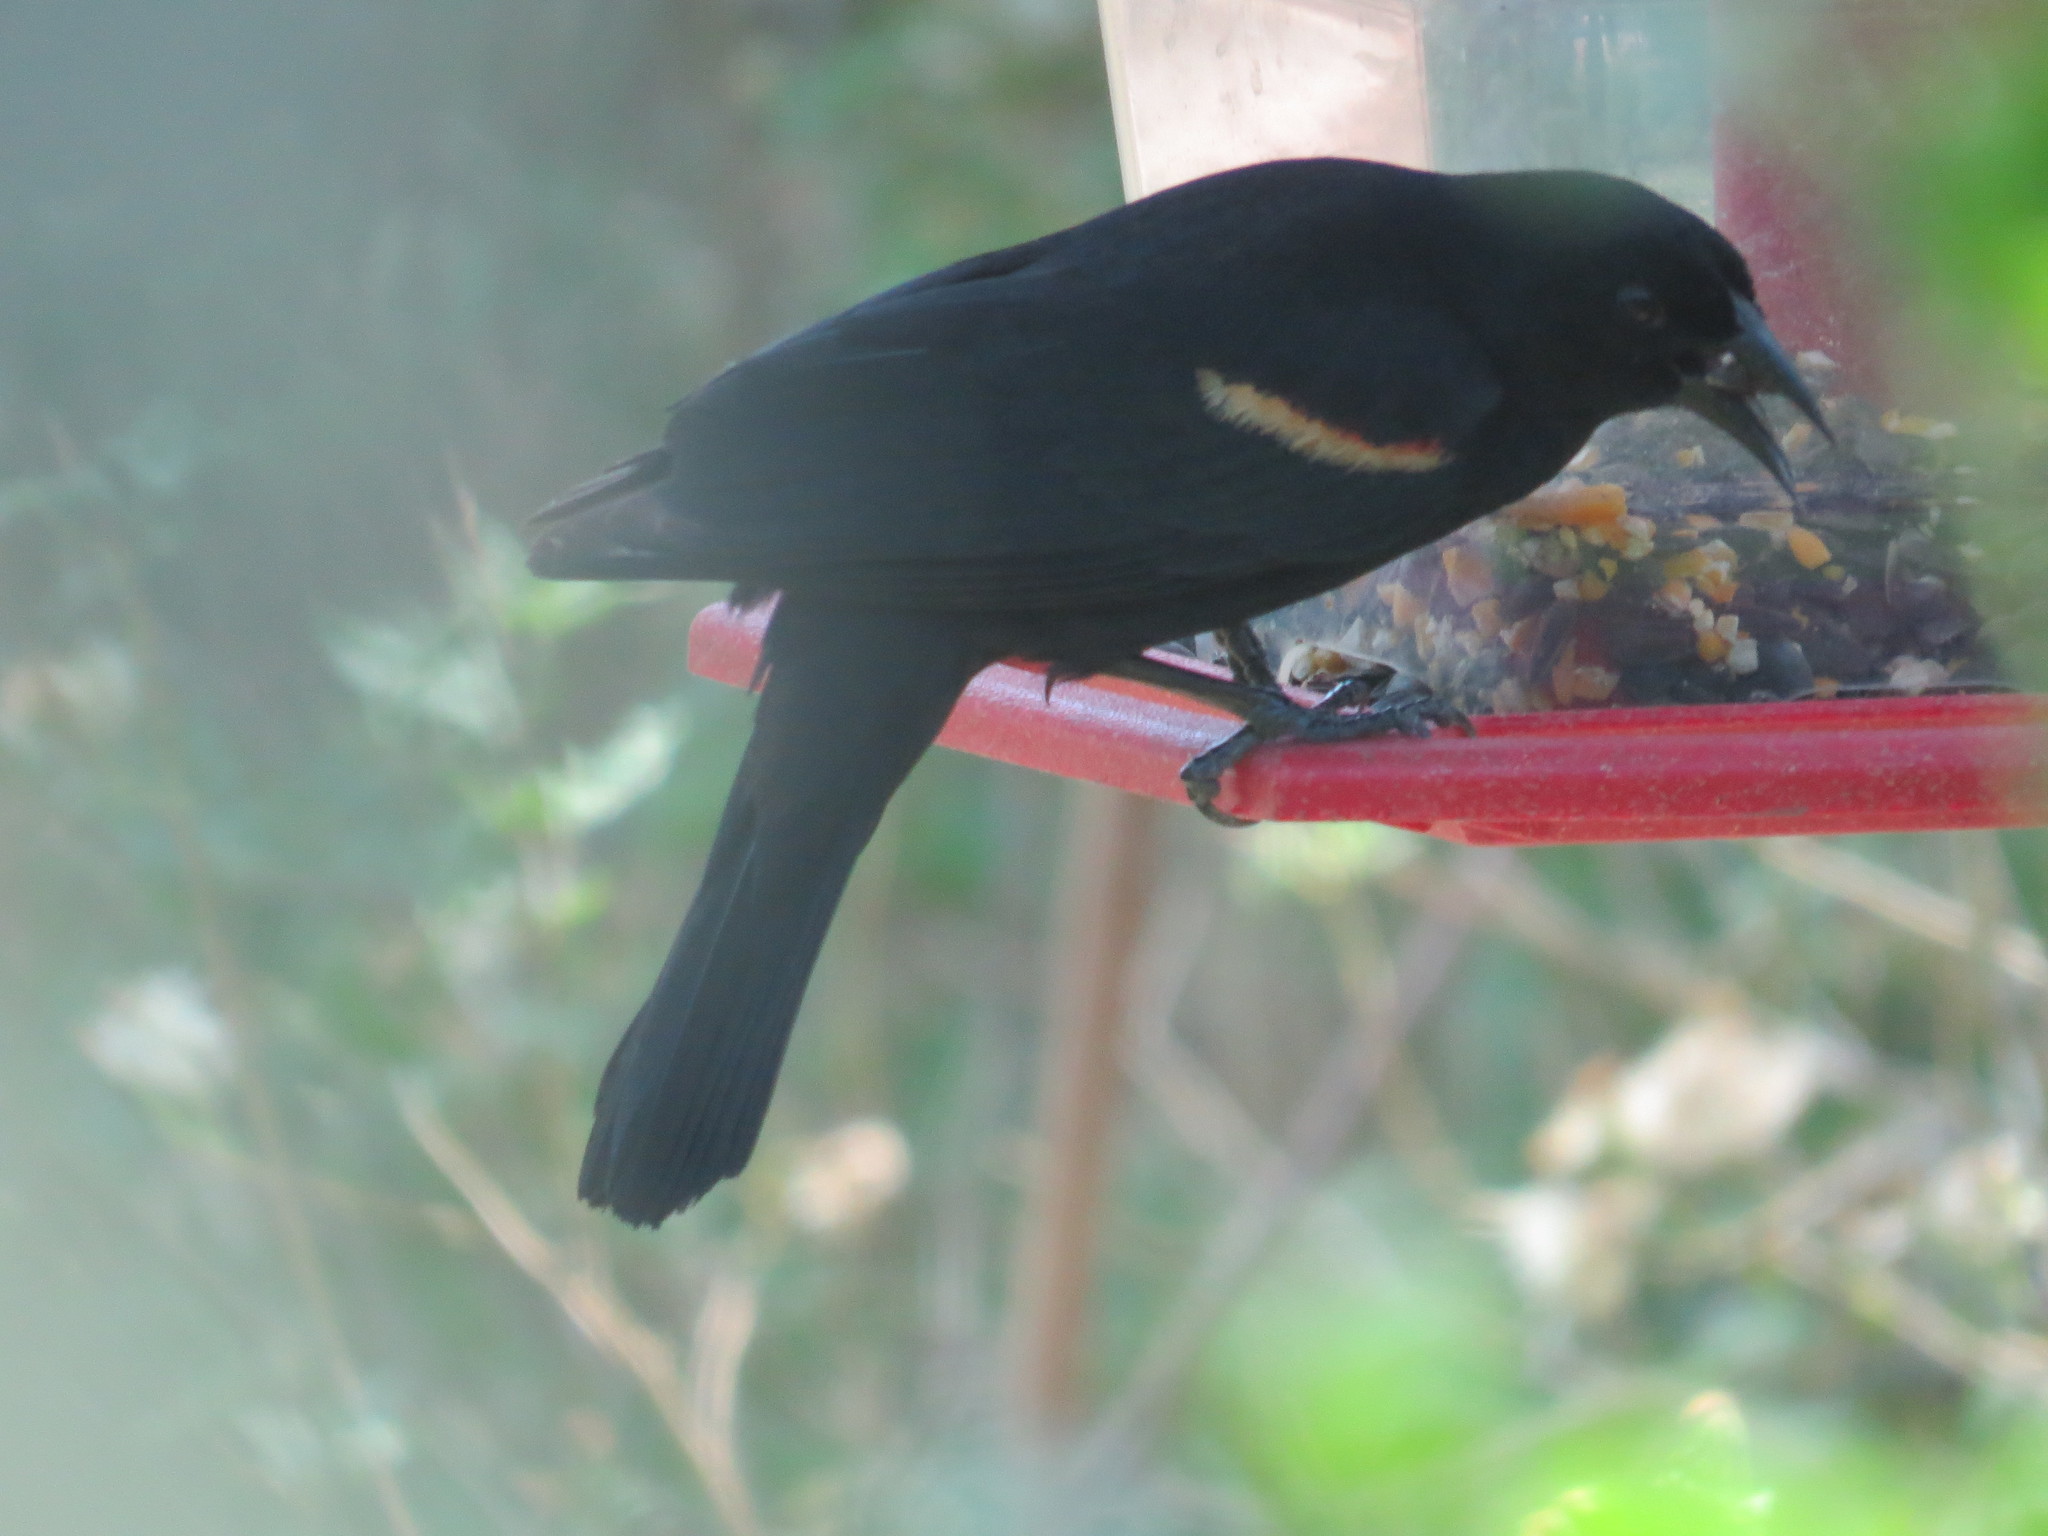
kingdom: Animalia
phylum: Chordata
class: Aves
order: Passeriformes
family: Icteridae
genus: Agelaius
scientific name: Agelaius phoeniceus
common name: Red-winged blackbird
